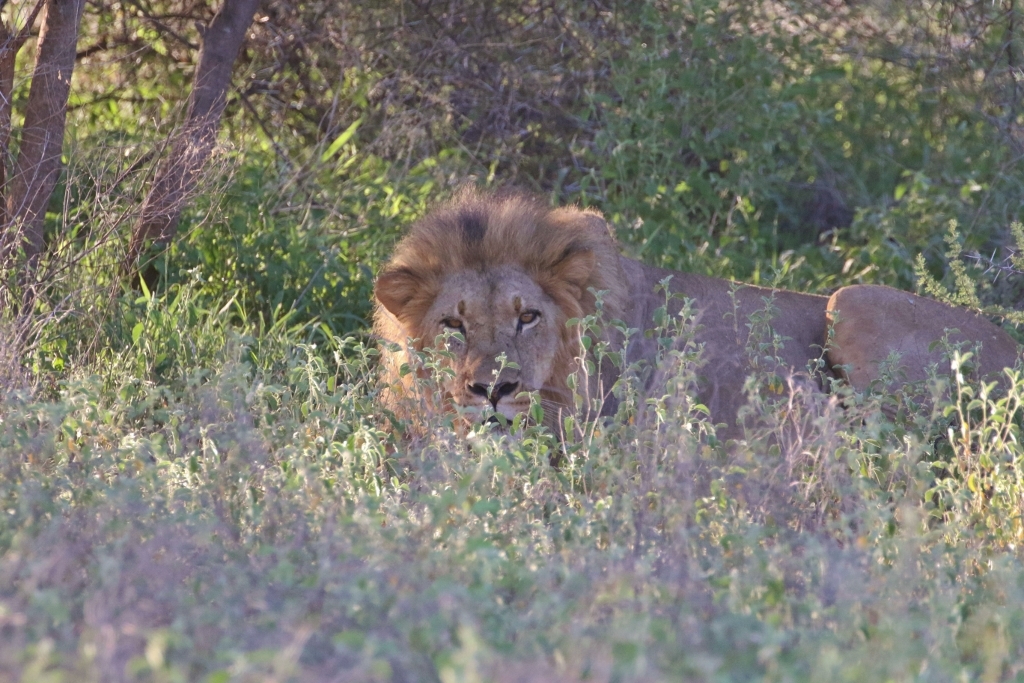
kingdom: Animalia
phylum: Chordata
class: Mammalia
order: Carnivora
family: Felidae
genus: Panthera
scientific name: Panthera leo
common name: Lion
